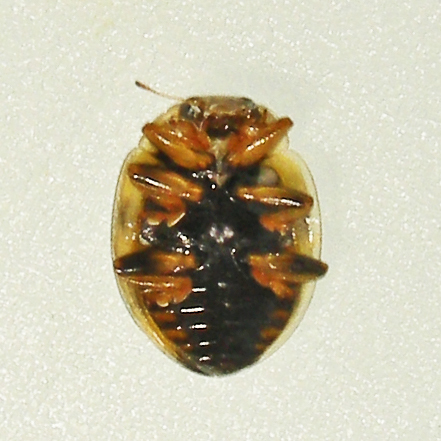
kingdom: Animalia
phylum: Arthropoda
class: Insecta
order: Coleoptera
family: Coccinellidae
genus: Propylaea
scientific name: Propylaea quatuordecimpunctata
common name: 14-spotted ladybird beetle
